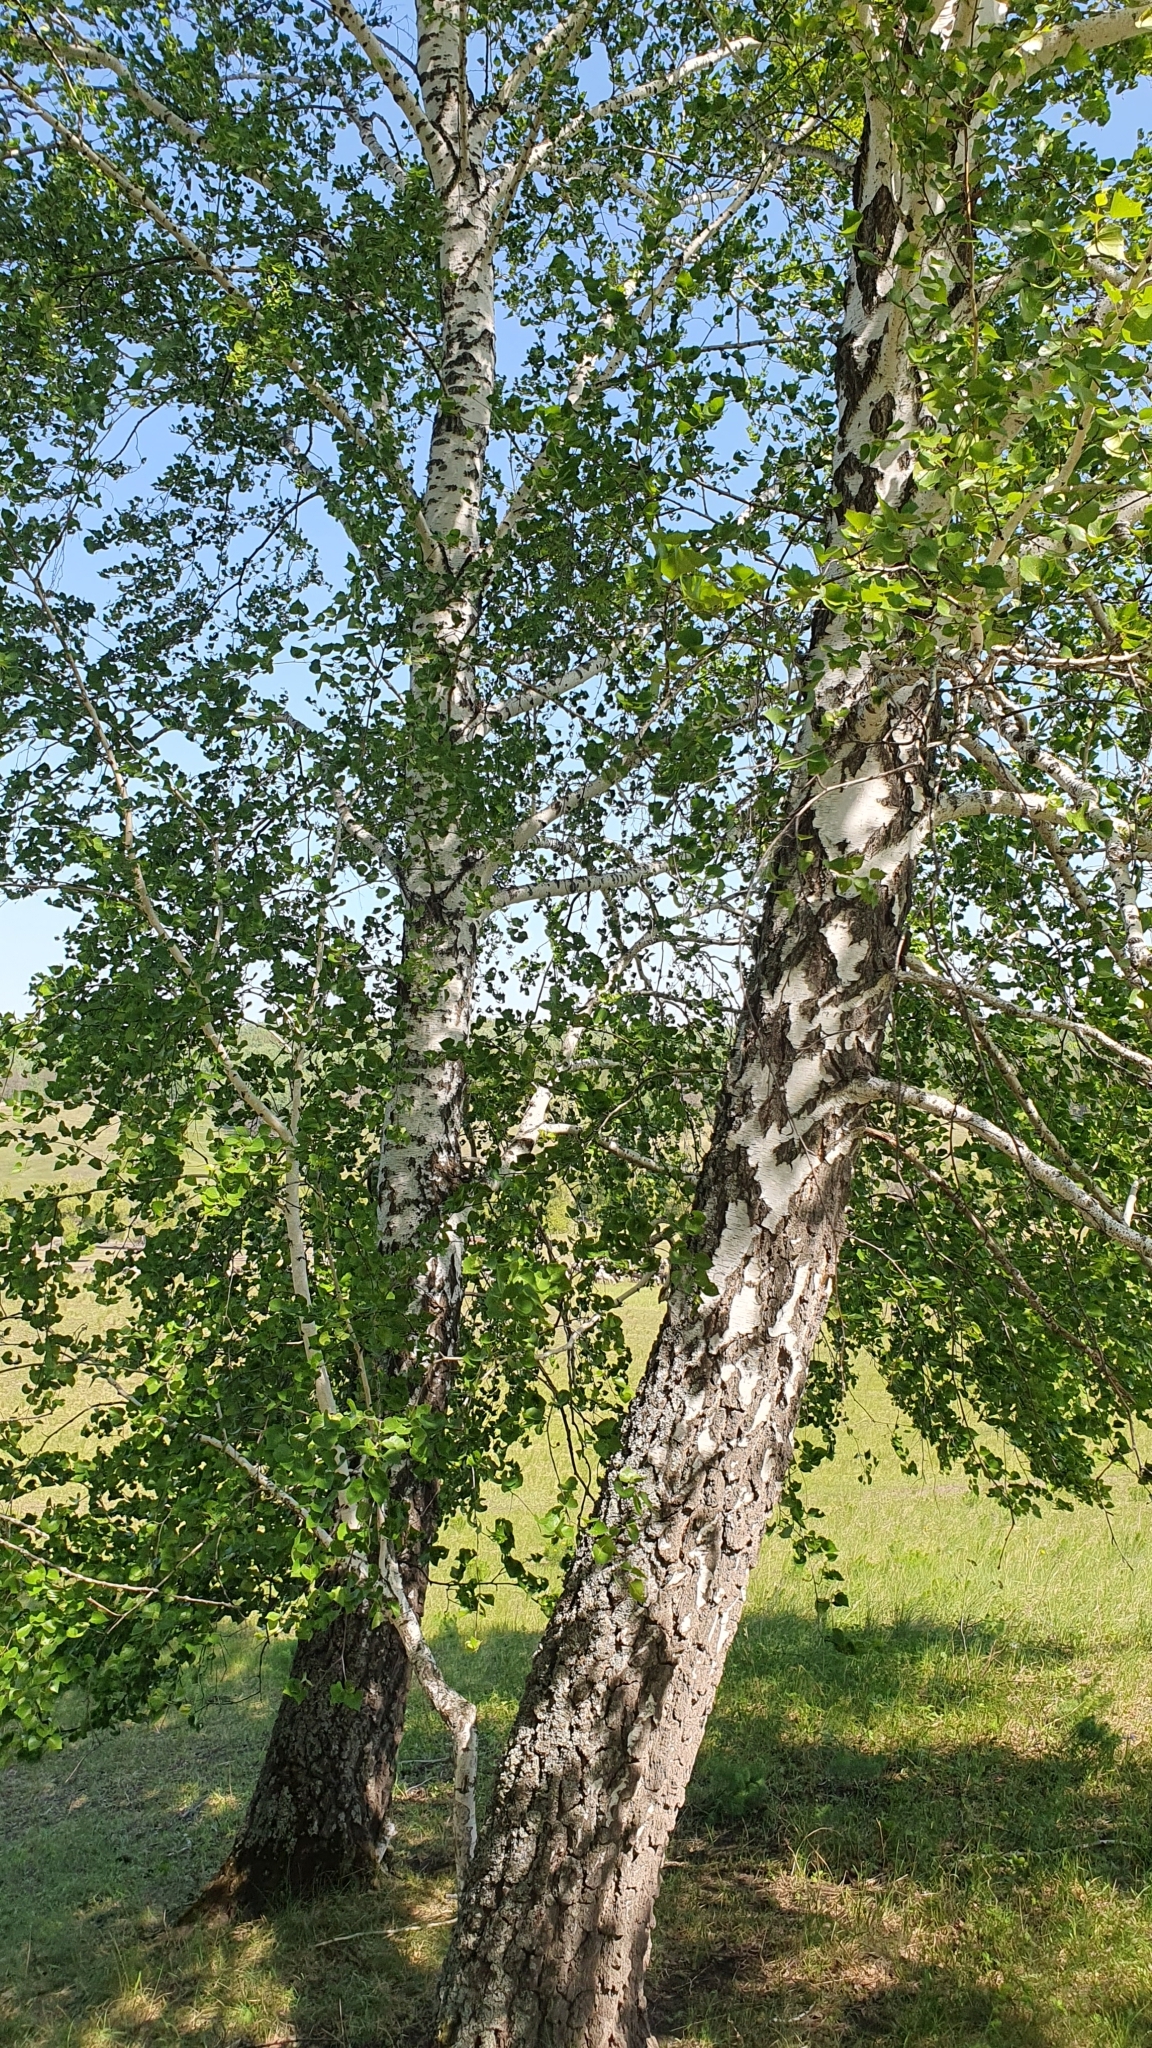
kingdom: Plantae
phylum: Tracheophyta
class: Magnoliopsida
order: Fagales
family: Betulaceae
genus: Betula
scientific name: Betula pendula
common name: Silver birch
